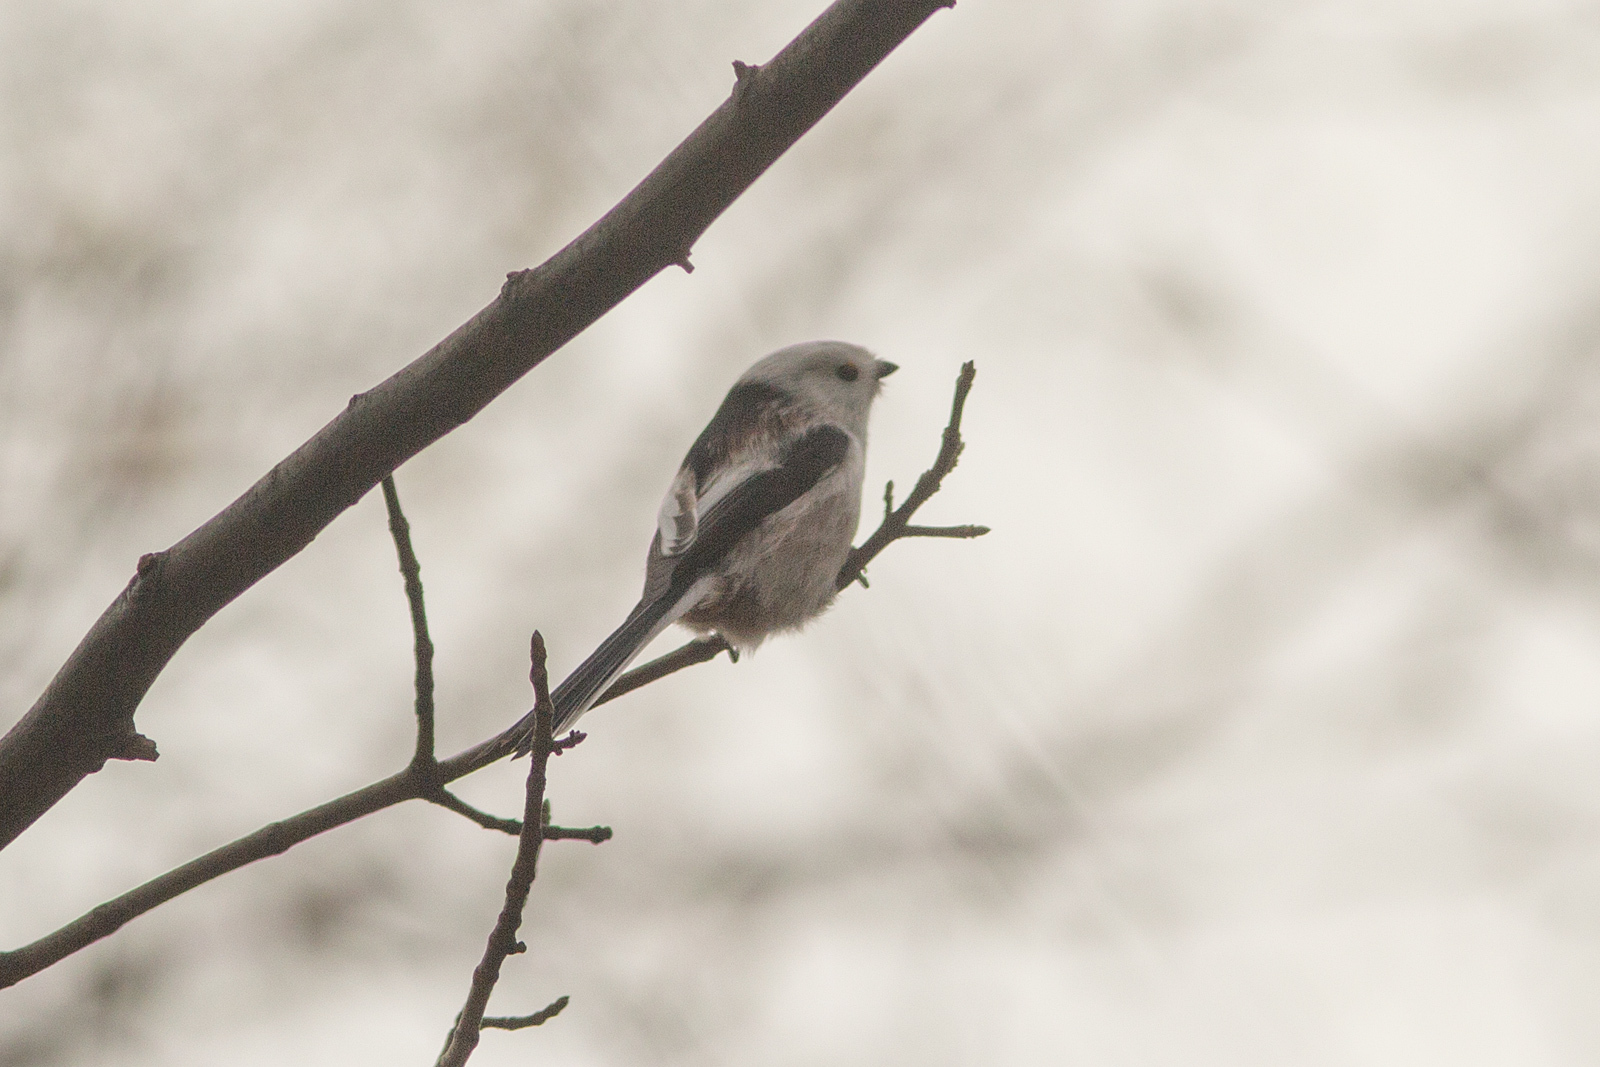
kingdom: Animalia
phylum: Chordata
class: Aves
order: Passeriformes
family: Aegithalidae
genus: Aegithalos
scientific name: Aegithalos caudatus
